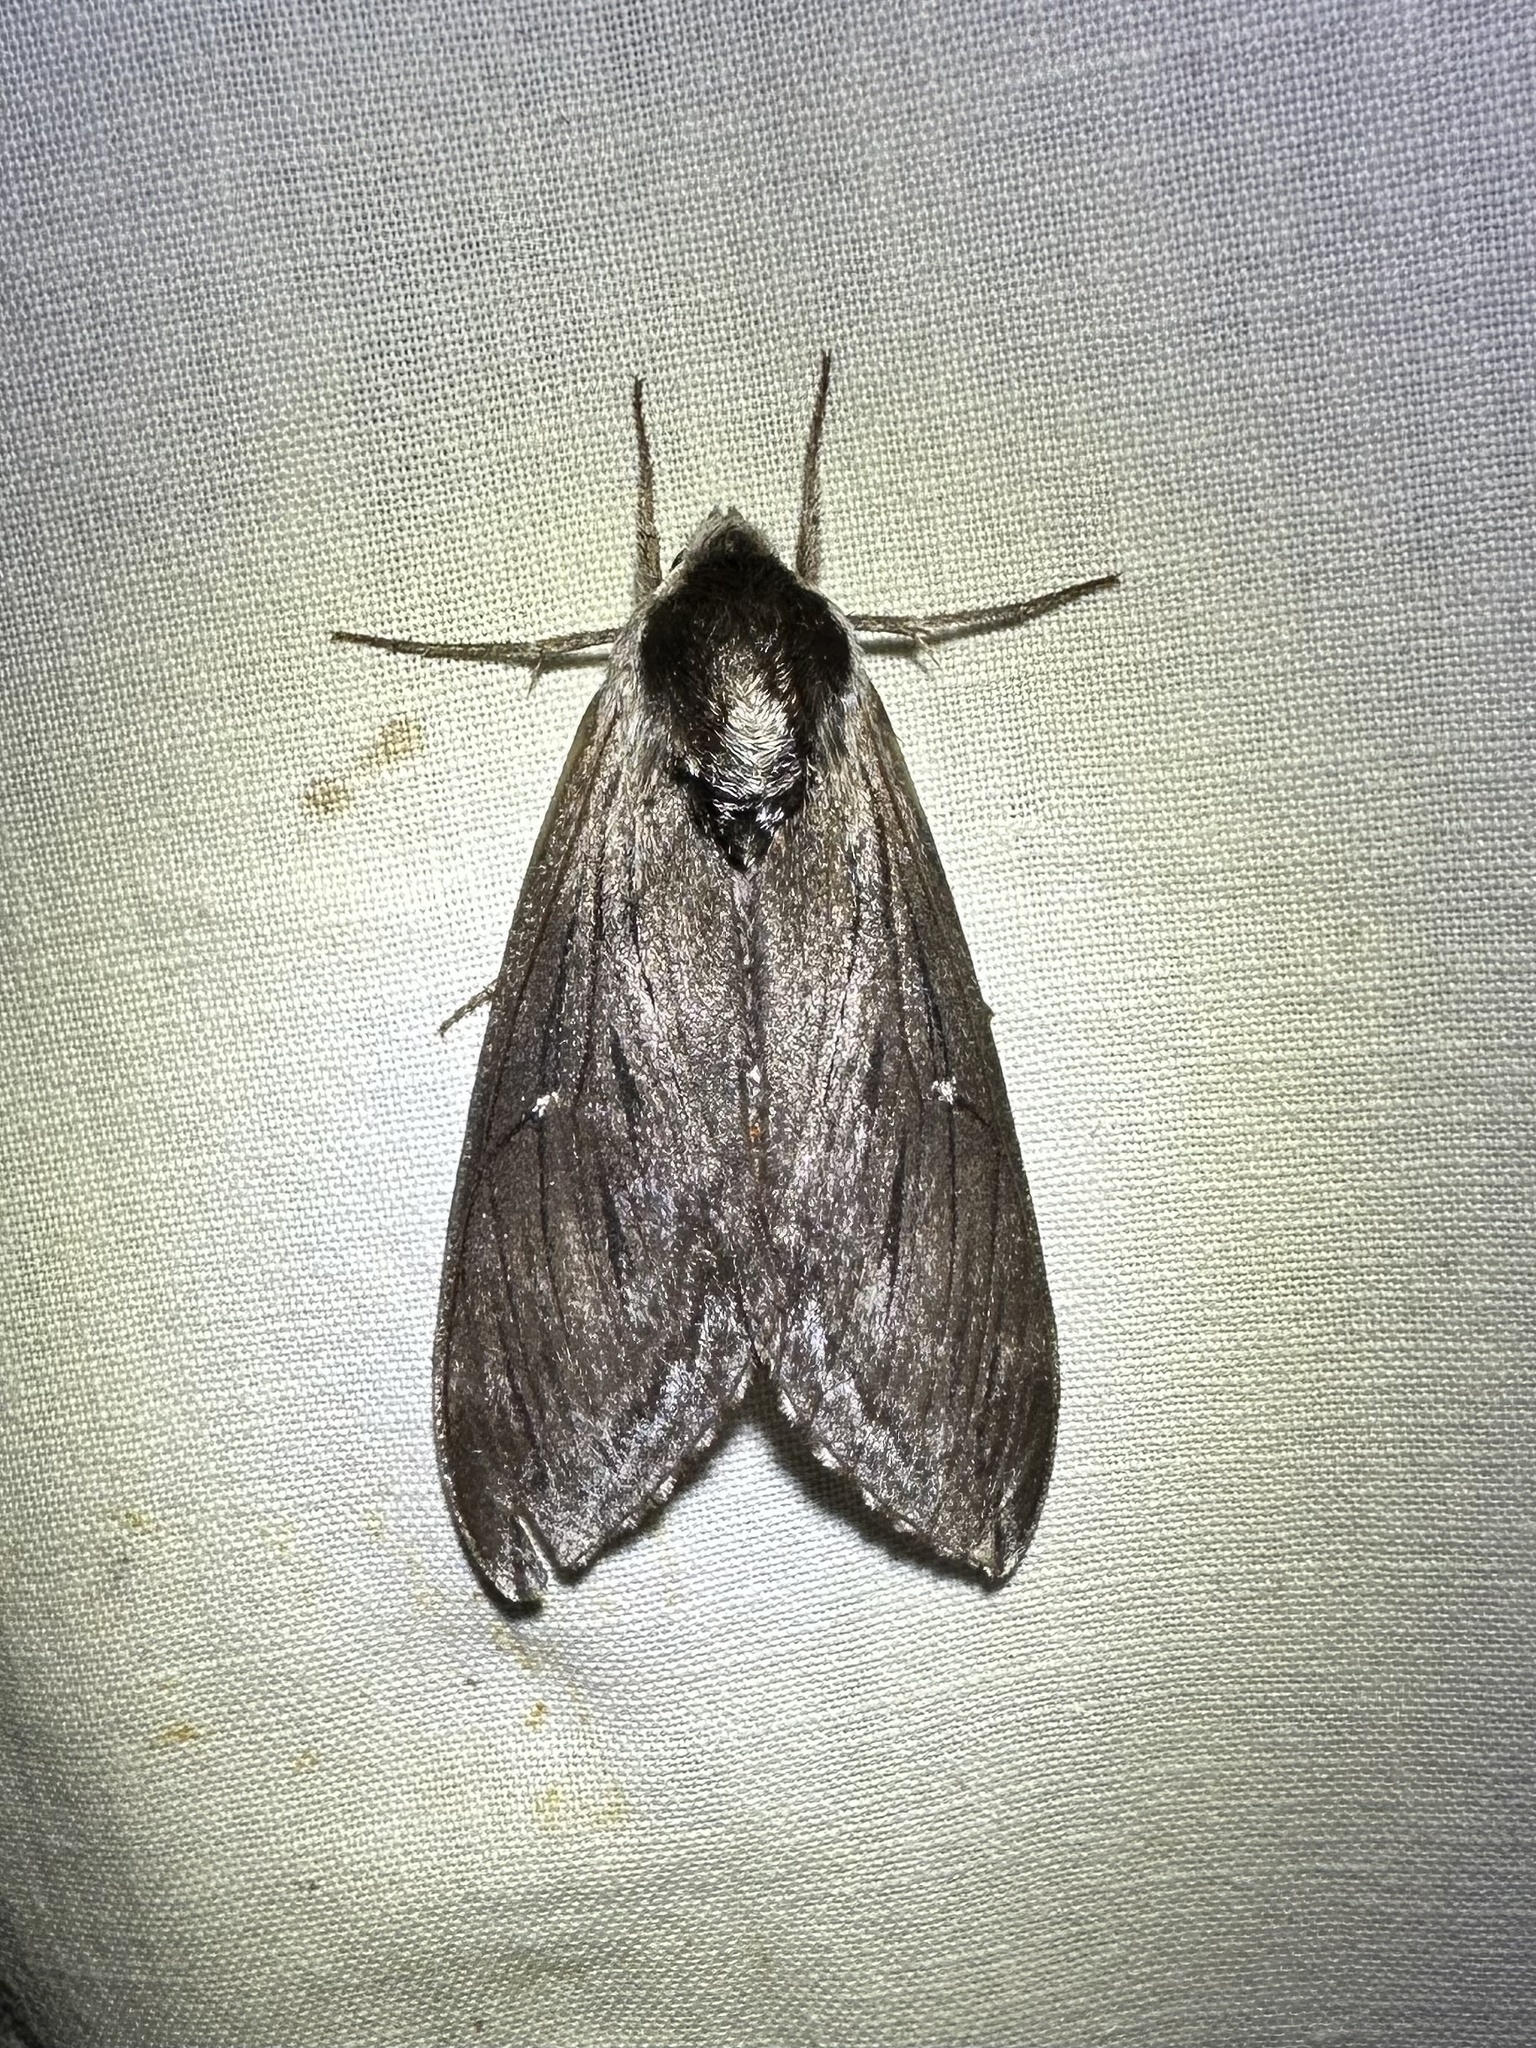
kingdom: Animalia
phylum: Arthropoda
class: Insecta
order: Lepidoptera
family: Sphingidae
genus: Sphinx
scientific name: Sphinx poecila
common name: Northern apple sphinx
